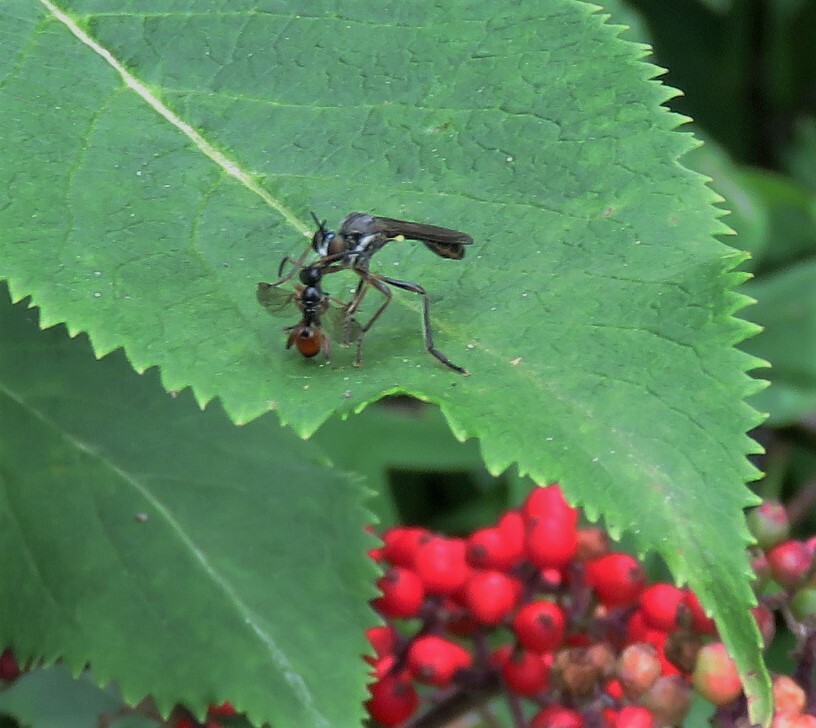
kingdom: Animalia
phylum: Arthropoda
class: Insecta
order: Diptera
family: Asilidae
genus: Dioctria
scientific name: Dioctria hyalipennis
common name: Stripe-legged robberfly
